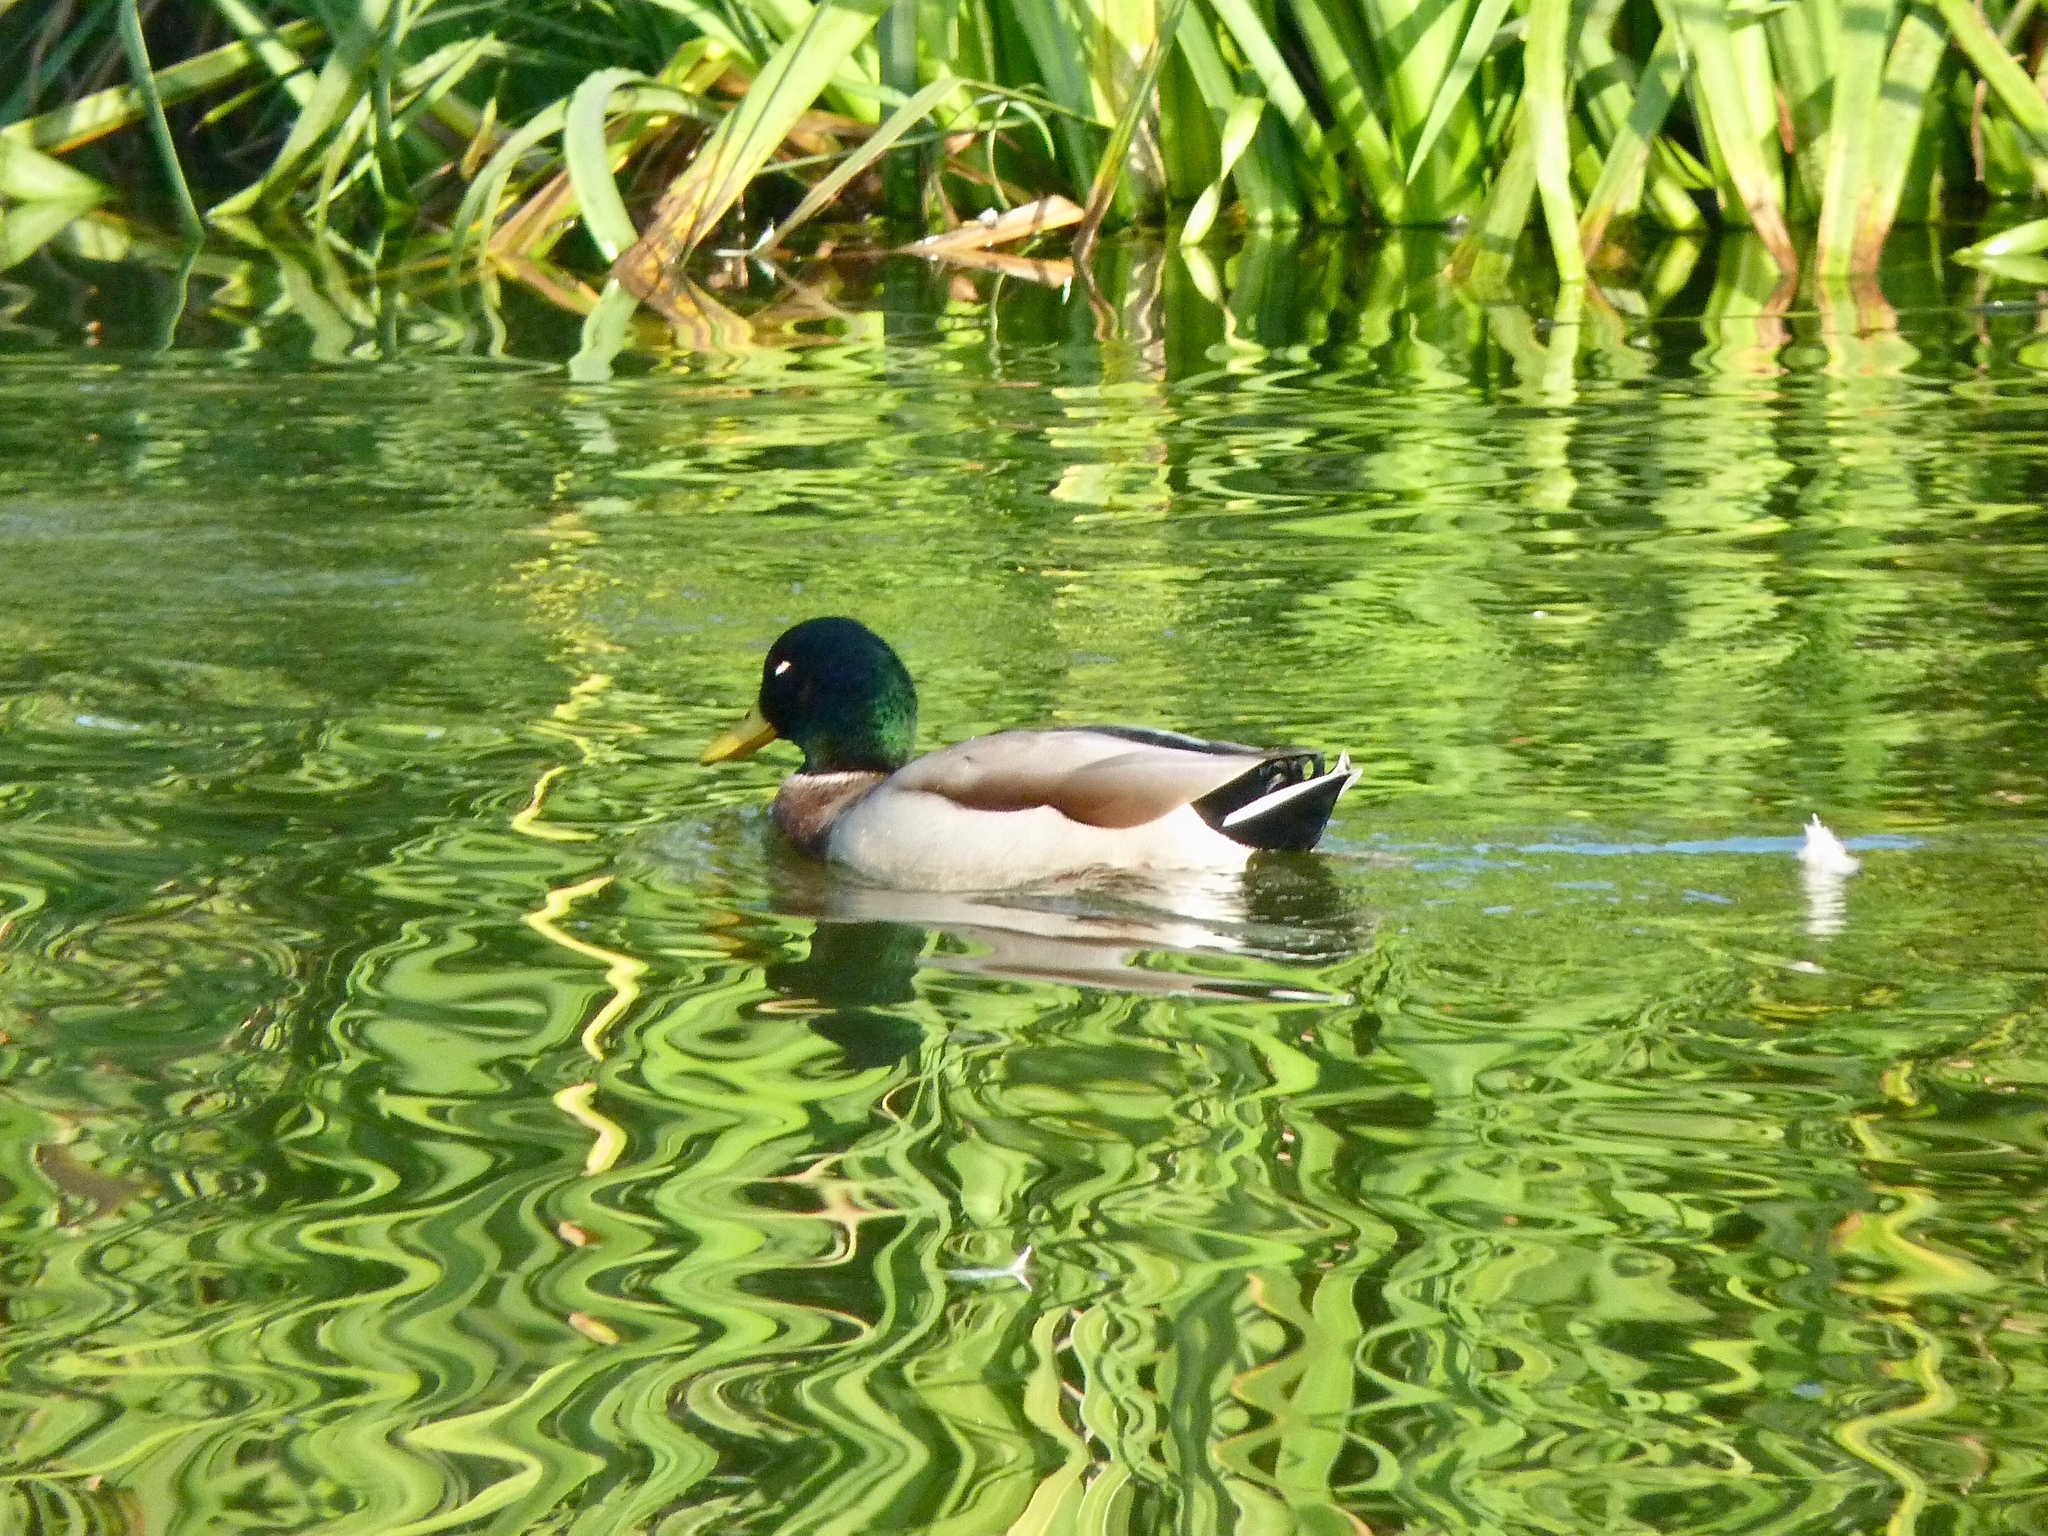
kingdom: Animalia
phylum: Chordata
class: Aves
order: Anseriformes
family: Anatidae
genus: Anas
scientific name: Anas platyrhynchos
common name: Mallard
